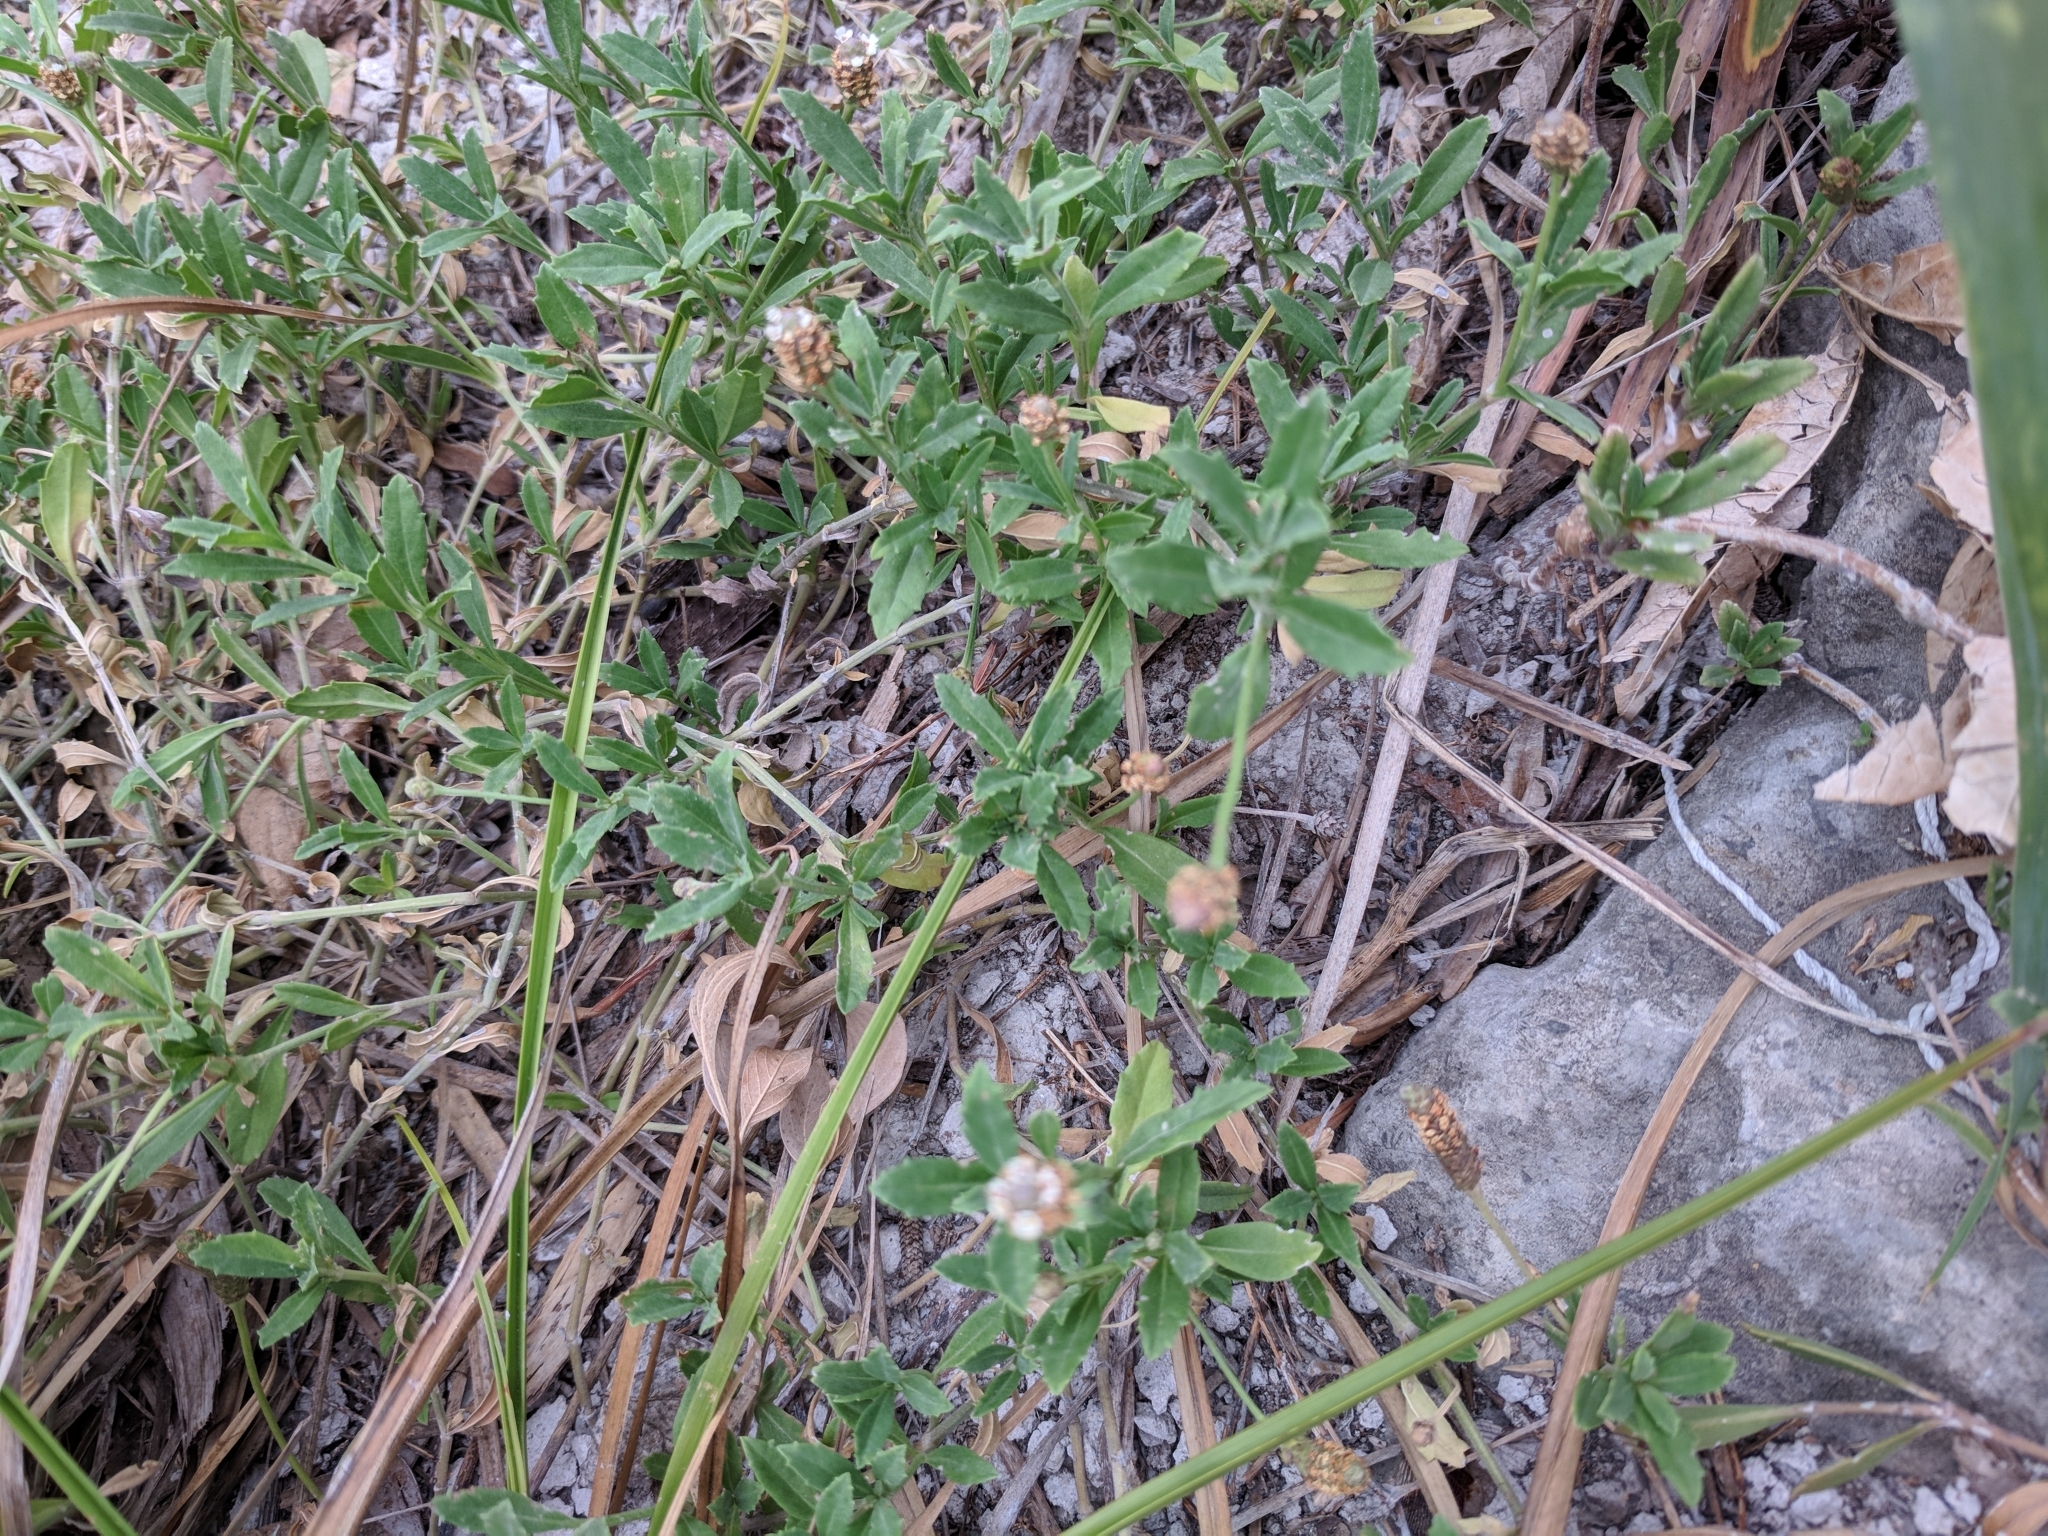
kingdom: Plantae
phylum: Tracheophyta
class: Magnoliopsida
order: Lamiales
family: Verbenaceae
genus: Phyla
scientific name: Phyla nodiflora
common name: Frogfruit
